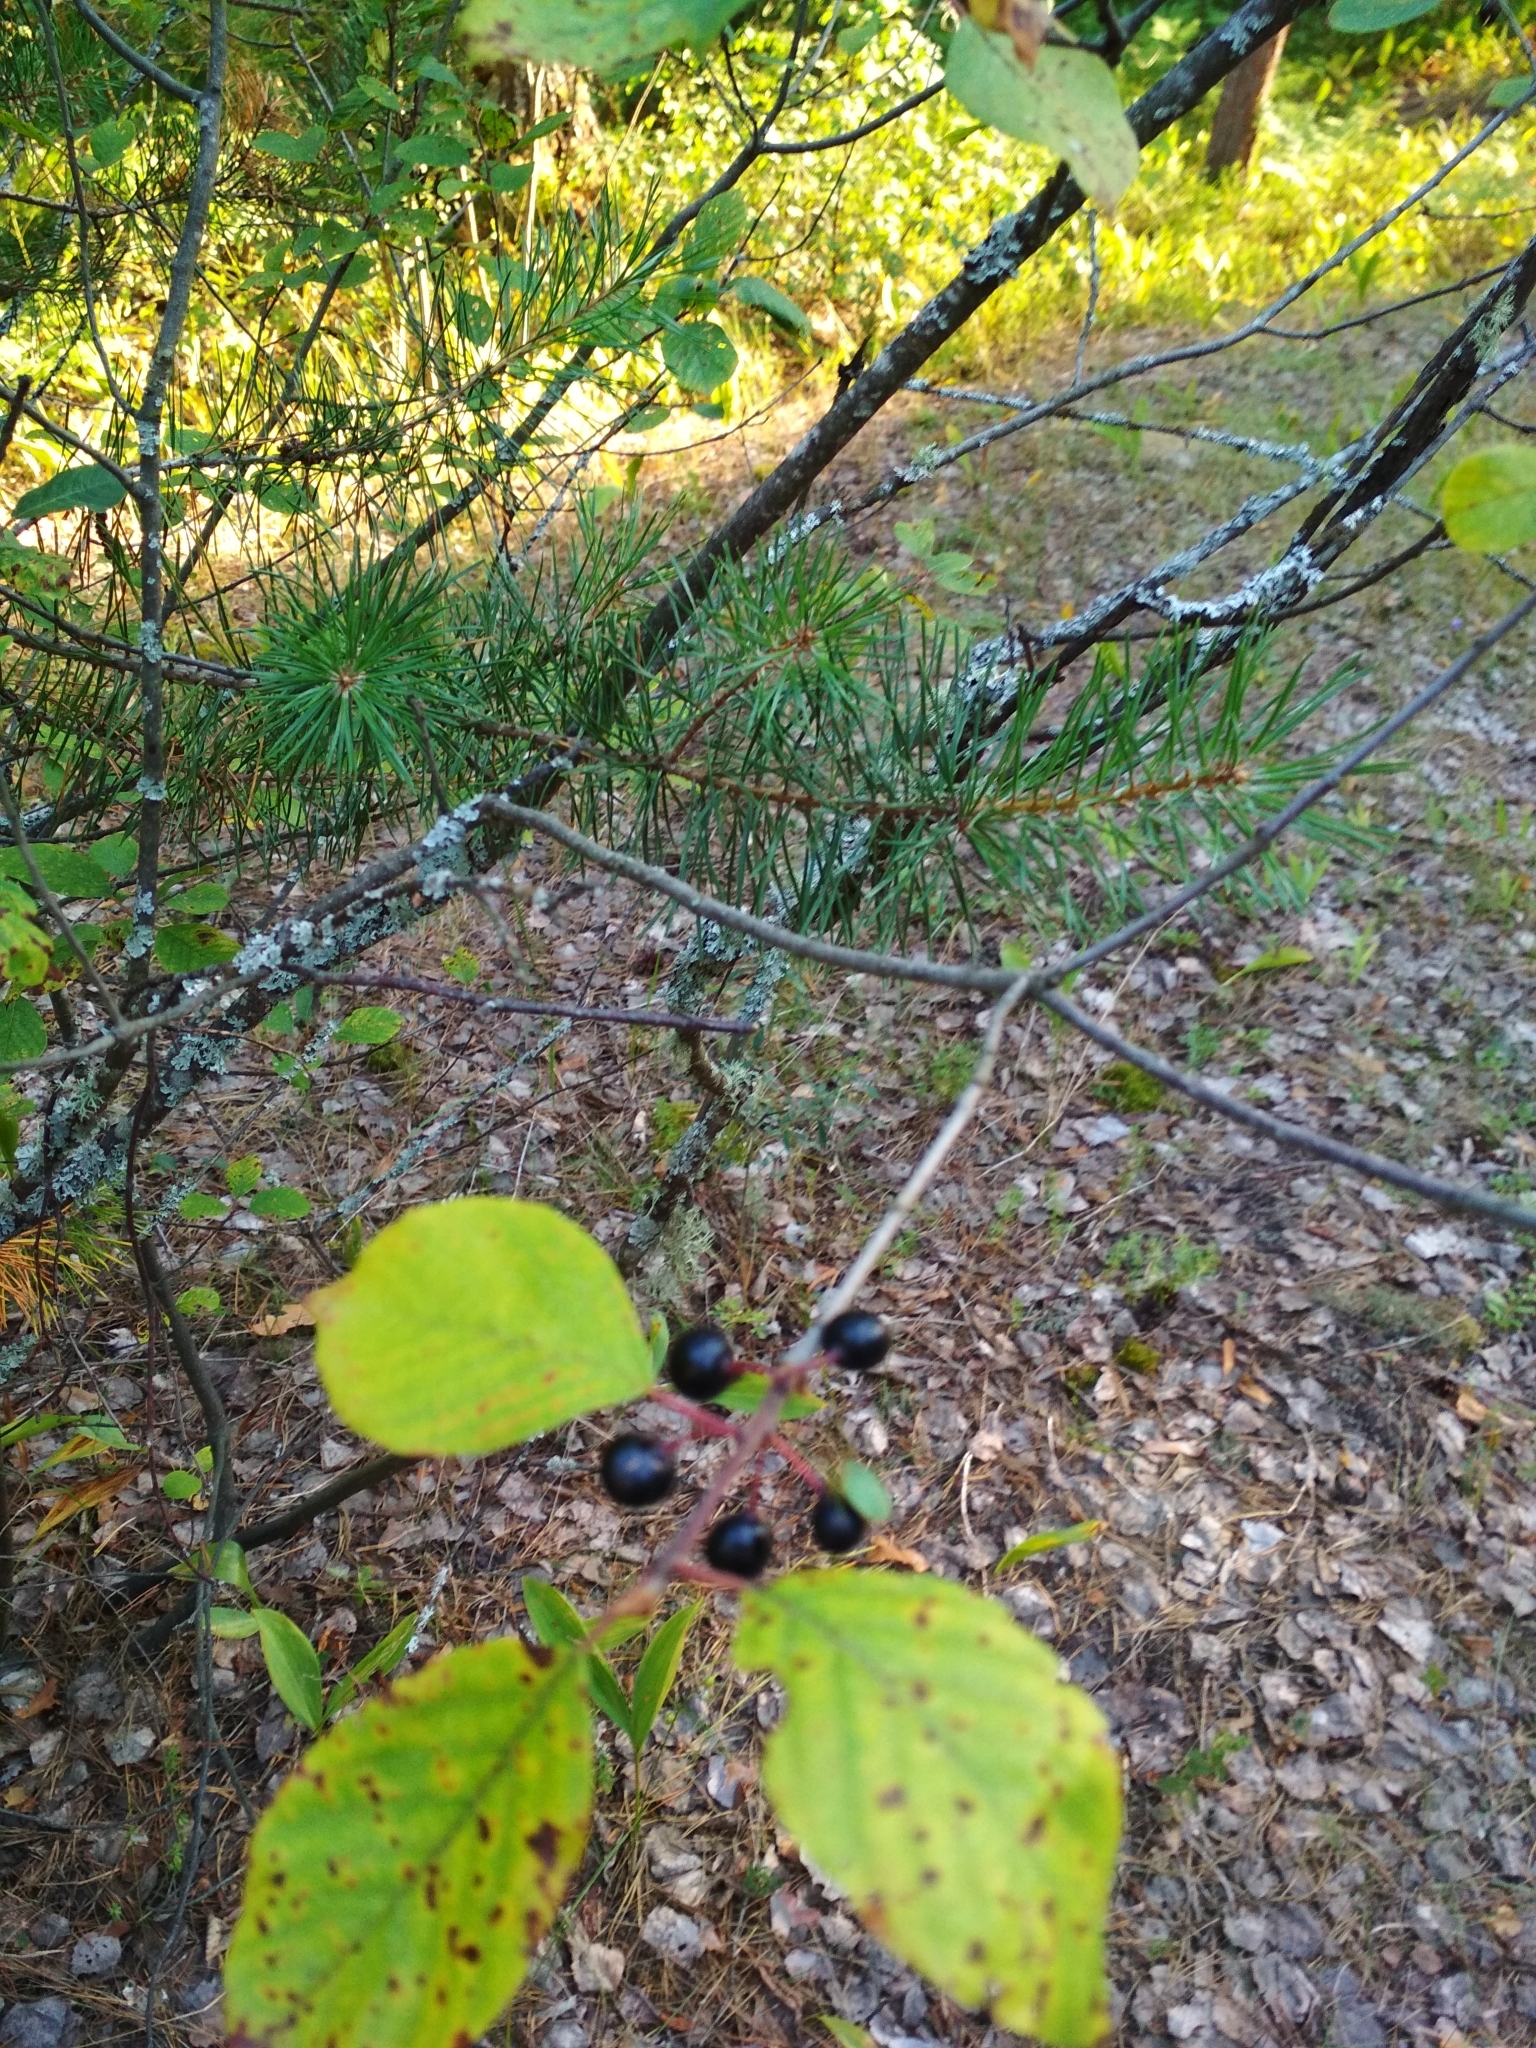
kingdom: Plantae
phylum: Tracheophyta
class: Magnoliopsida
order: Rosales
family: Rhamnaceae
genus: Frangula
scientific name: Frangula alnus
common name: Alder buckthorn
